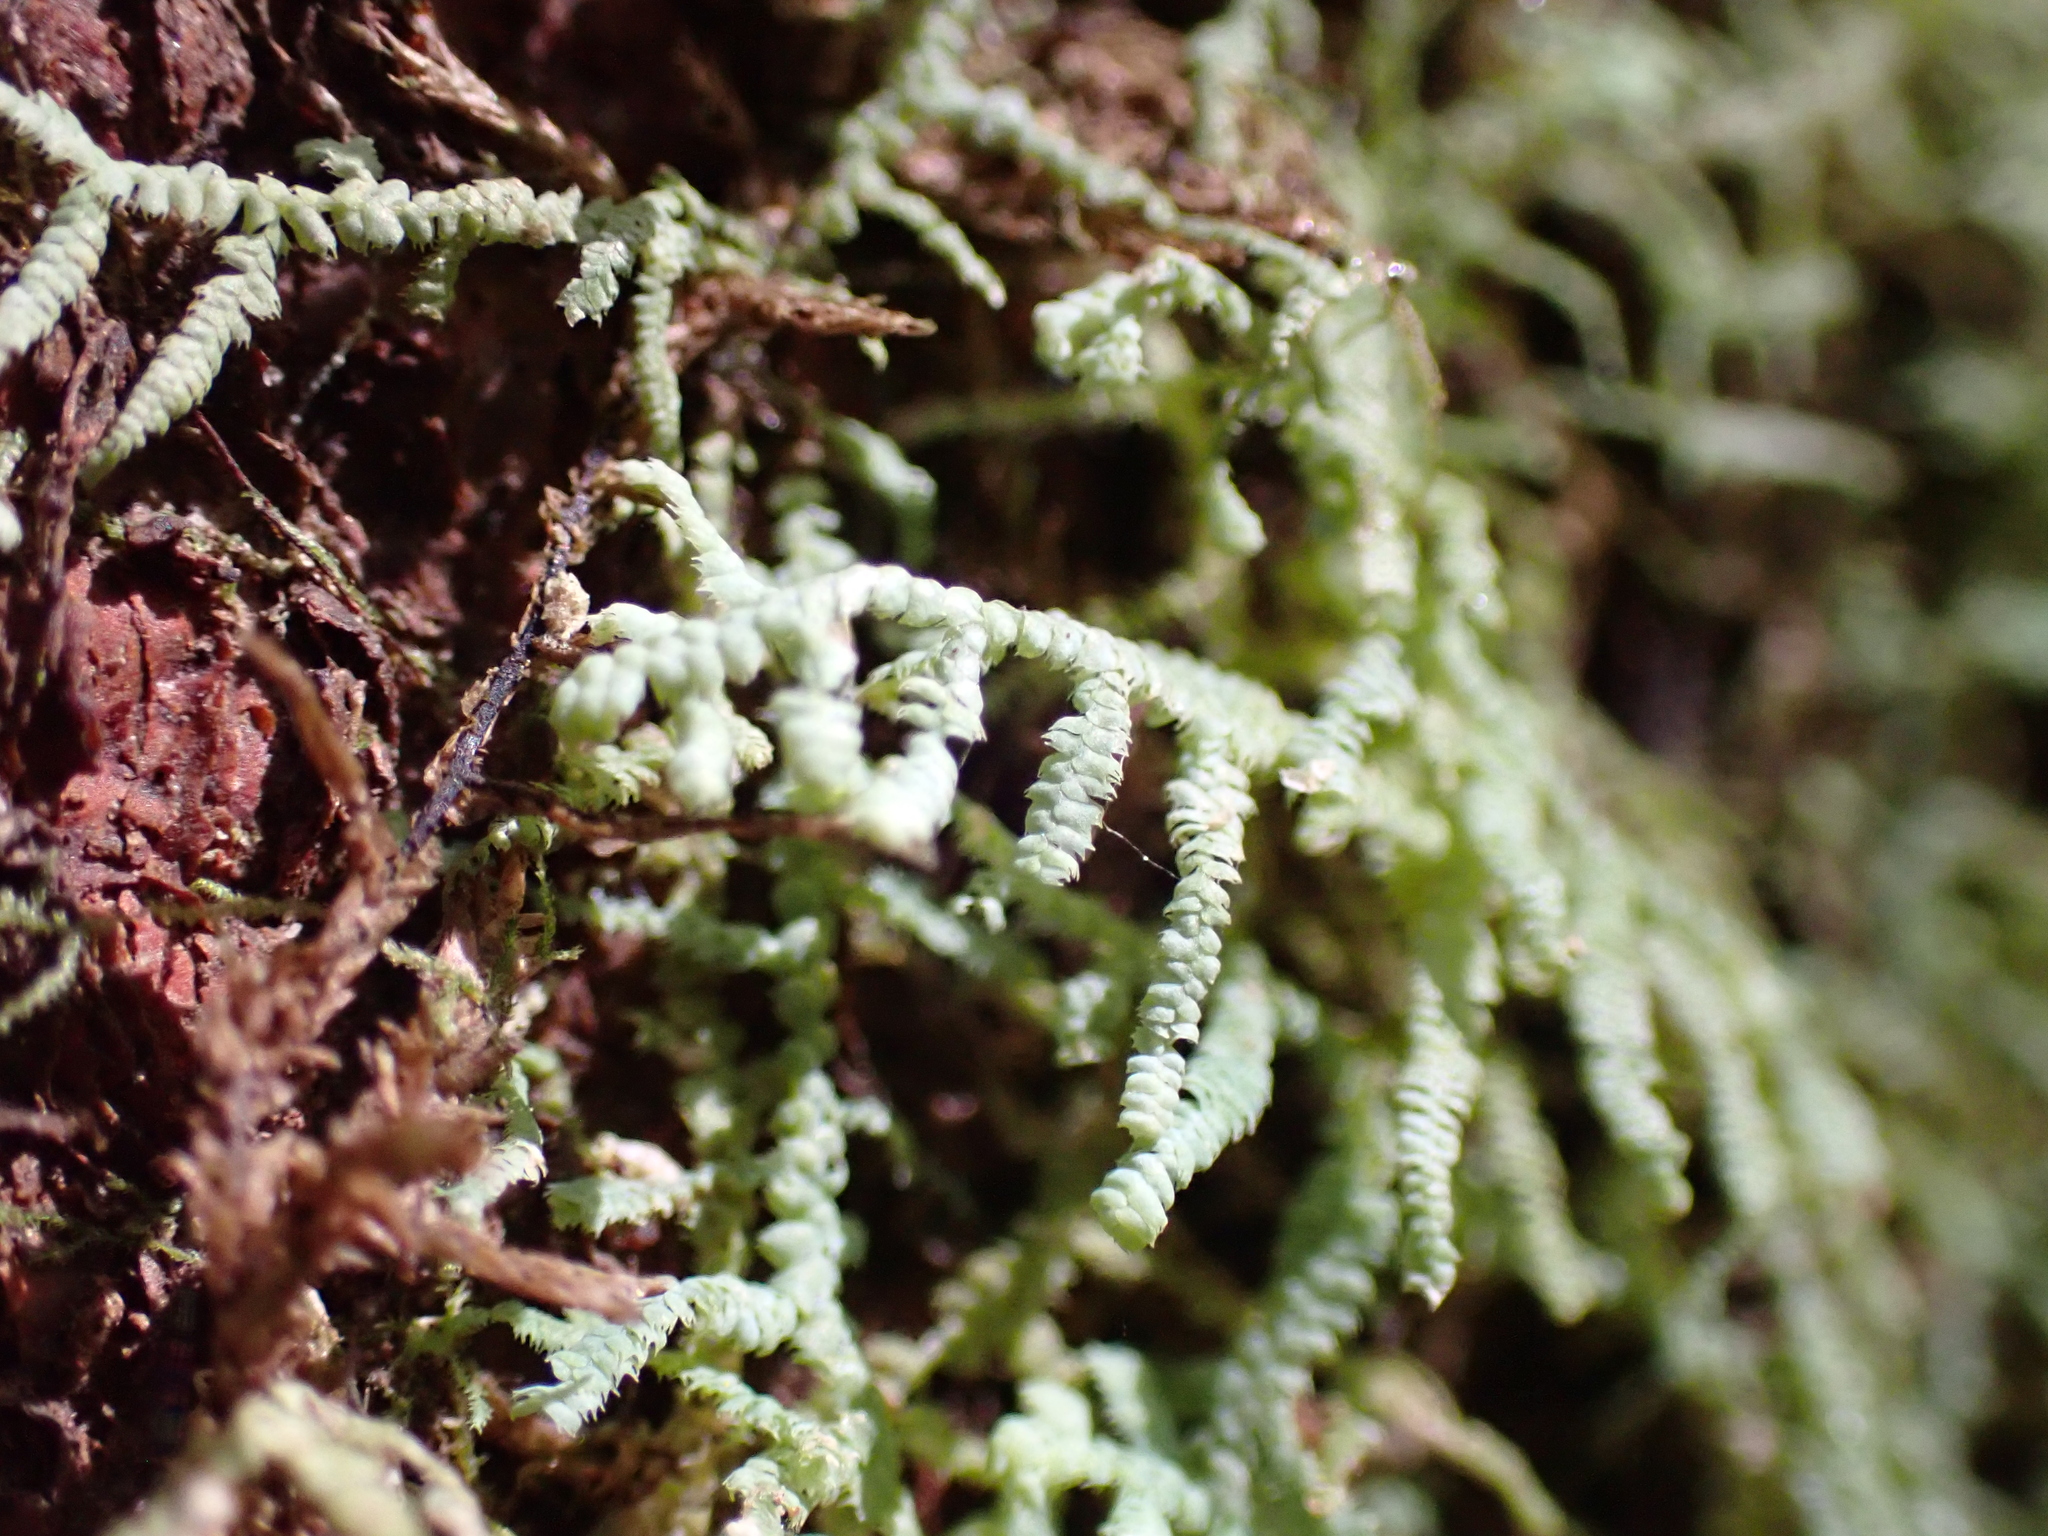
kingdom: Plantae
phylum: Marchantiophyta
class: Jungermanniopsida
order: Jungermanniales
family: Lepidoziaceae
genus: Lepidozia
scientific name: Lepidozia glaucophylla
